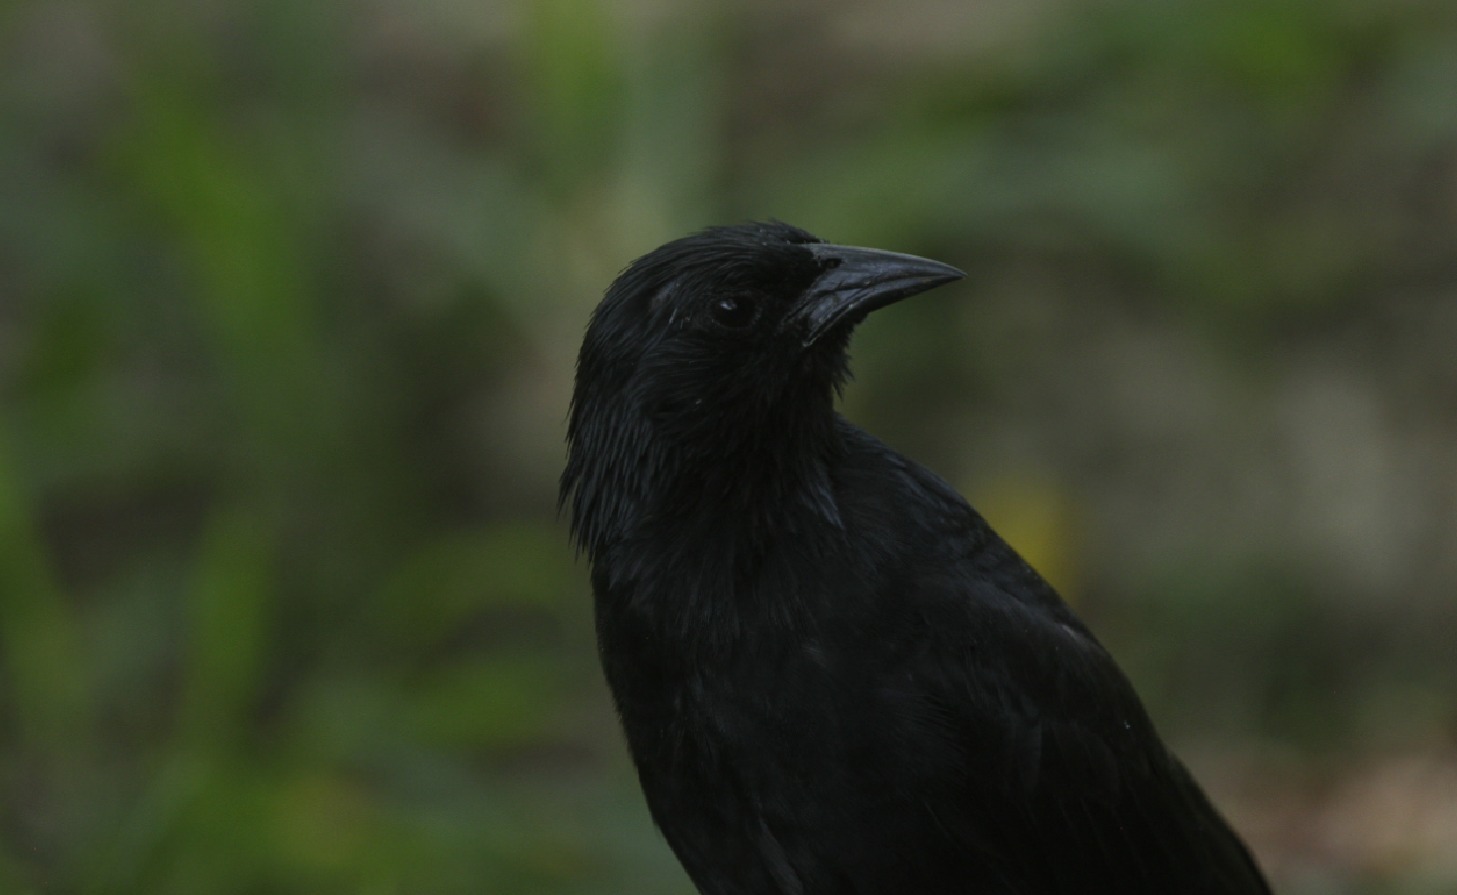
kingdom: Animalia
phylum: Chordata
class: Aves
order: Passeriformes
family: Icteridae
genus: Gnorimopsar
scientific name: Gnorimopsar chopi
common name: Chopi blackbird
